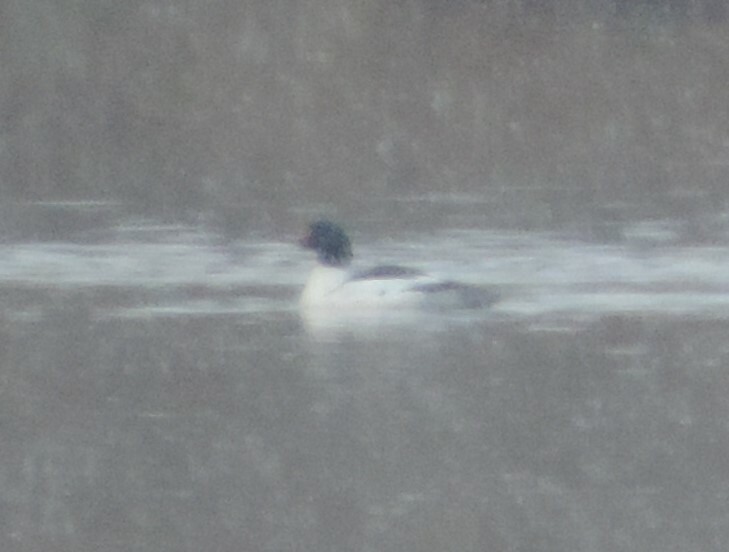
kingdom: Animalia
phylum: Chordata
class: Aves
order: Anseriformes
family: Anatidae
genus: Mergus
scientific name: Mergus merganser
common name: Common merganser
